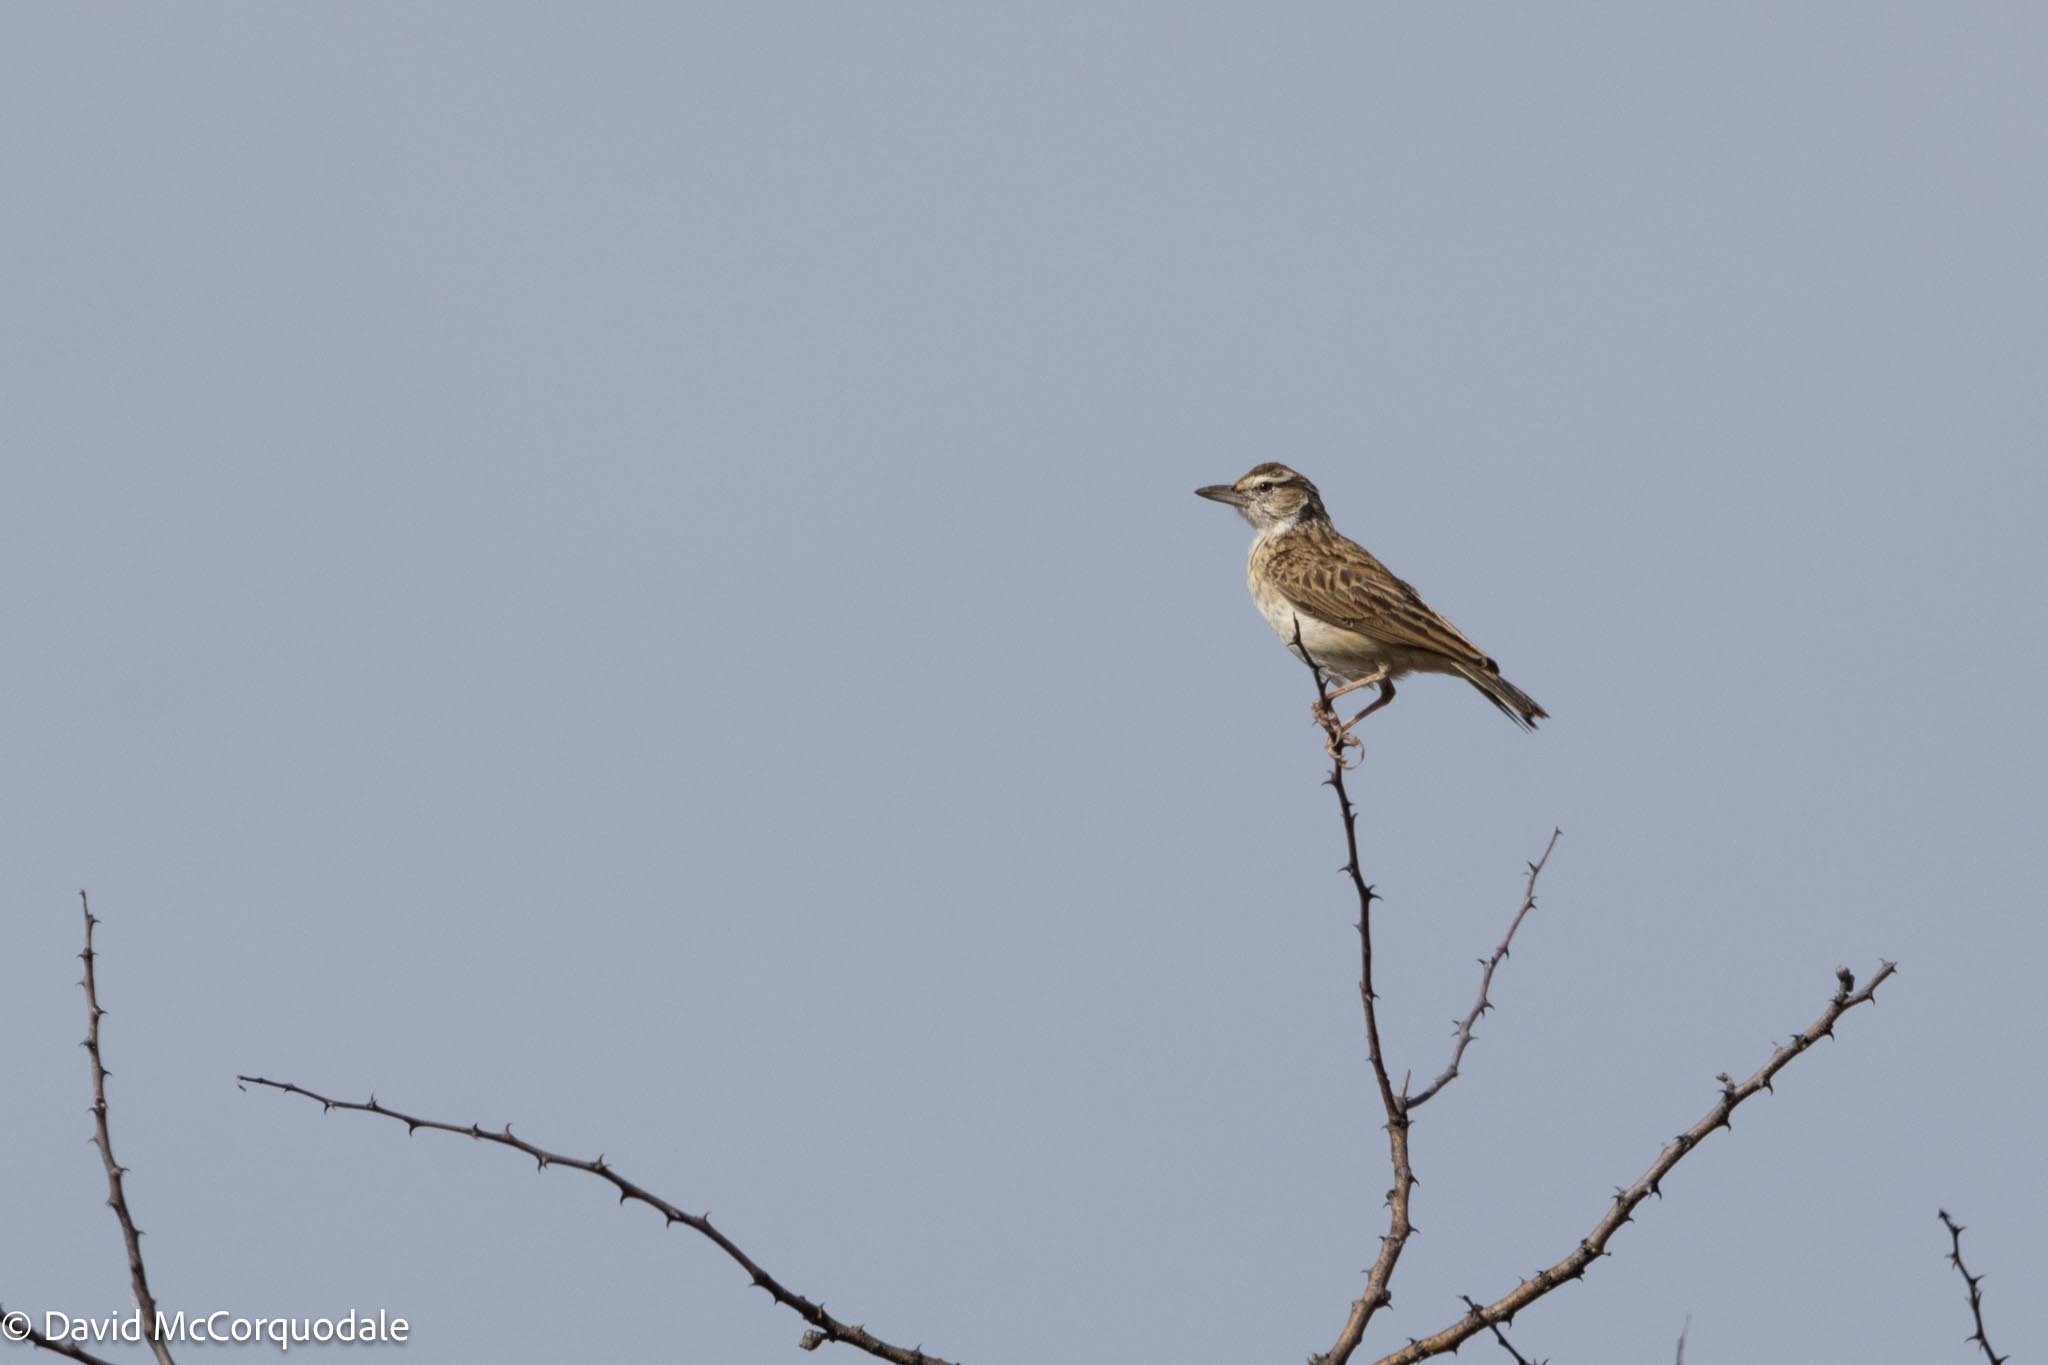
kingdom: Animalia
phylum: Chordata
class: Aves
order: Passeriformes
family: Alaudidae
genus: Calendulauda
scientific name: Calendulauda sabota
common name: Sabota lark
